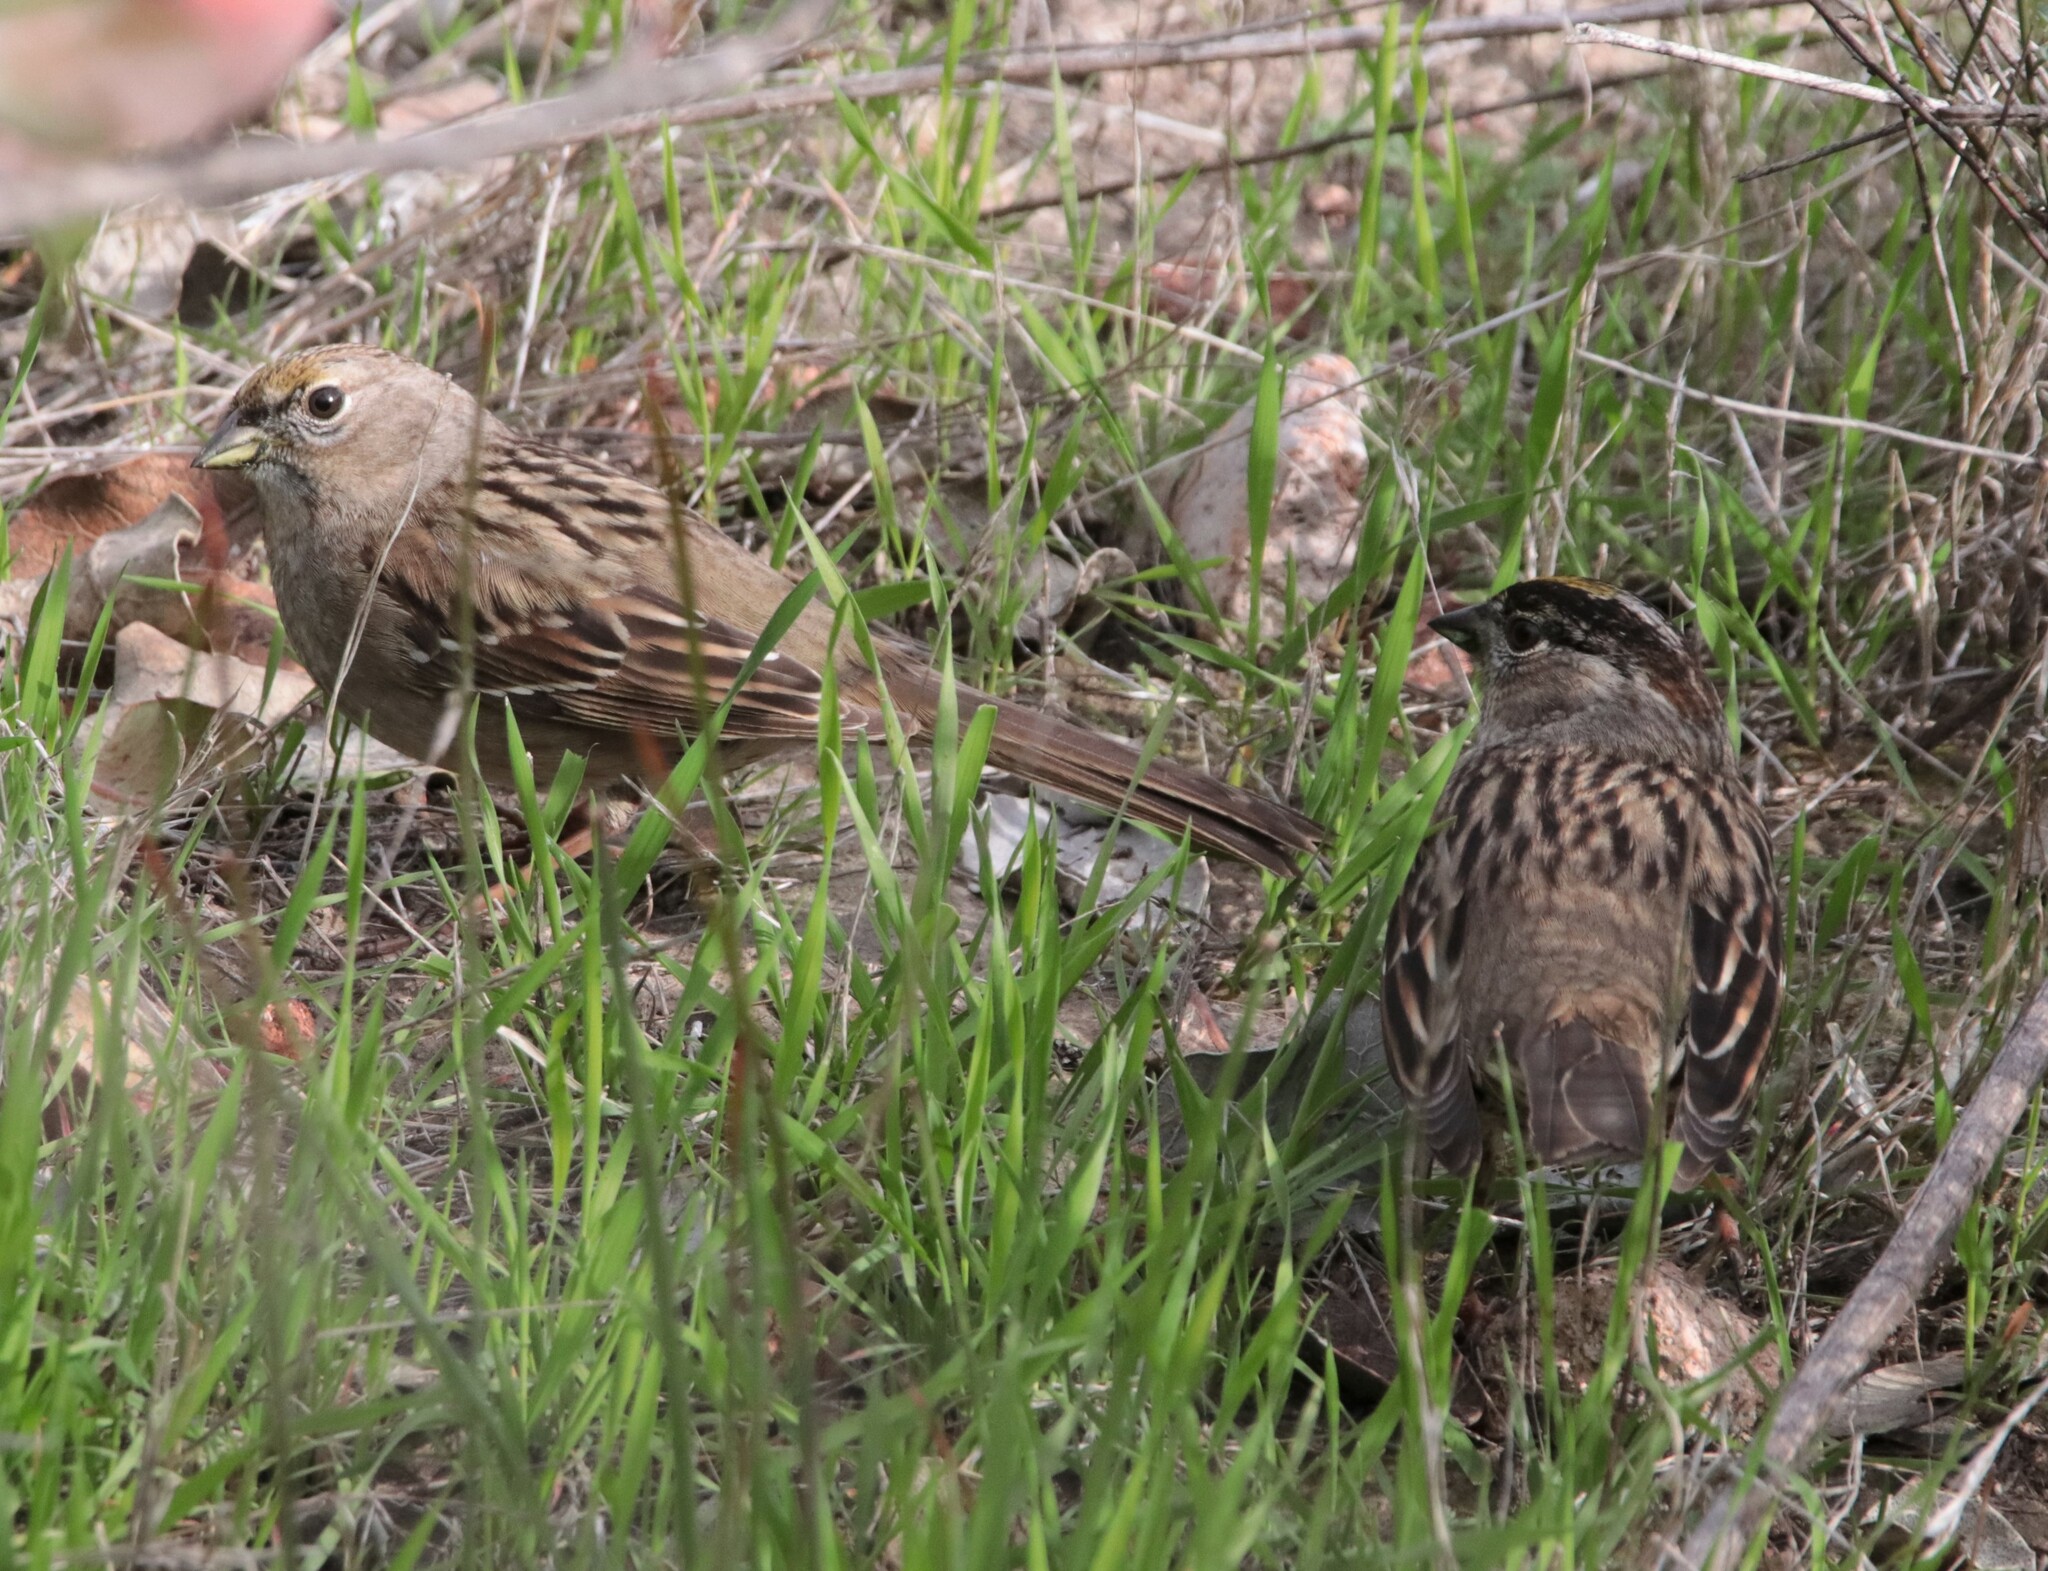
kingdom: Animalia
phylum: Chordata
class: Aves
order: Passeriformes
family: Passerellidae
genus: Zonotrichia
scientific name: Zonotrichia atricapilla
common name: Golden-crowned sparrow
